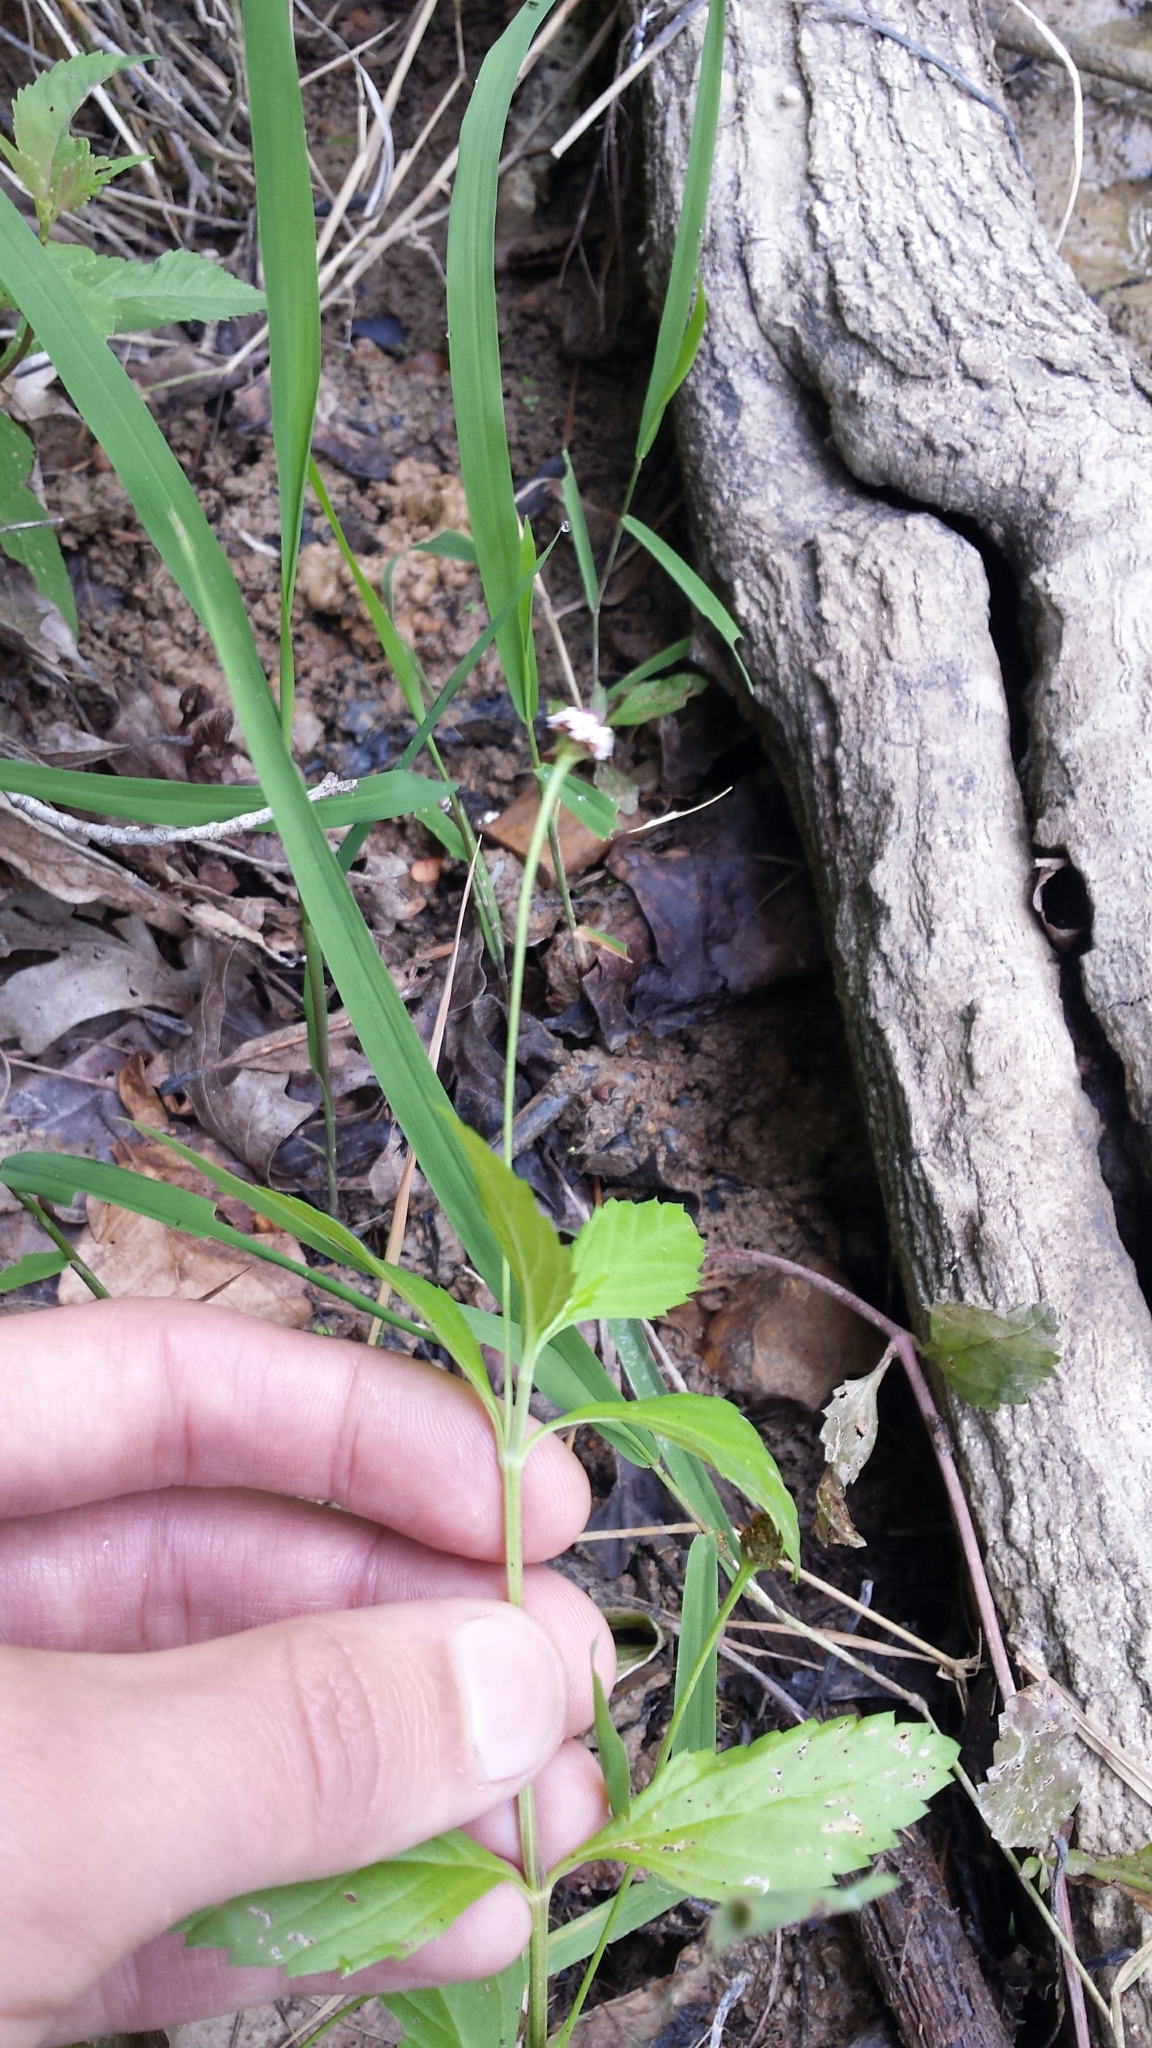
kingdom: Plantae
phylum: Tracheophyta
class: Magnoliopsida
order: Lamiales
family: Verbenaceae
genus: Phyla
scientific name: Phyla lanceolata
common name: Northern fogfruit
